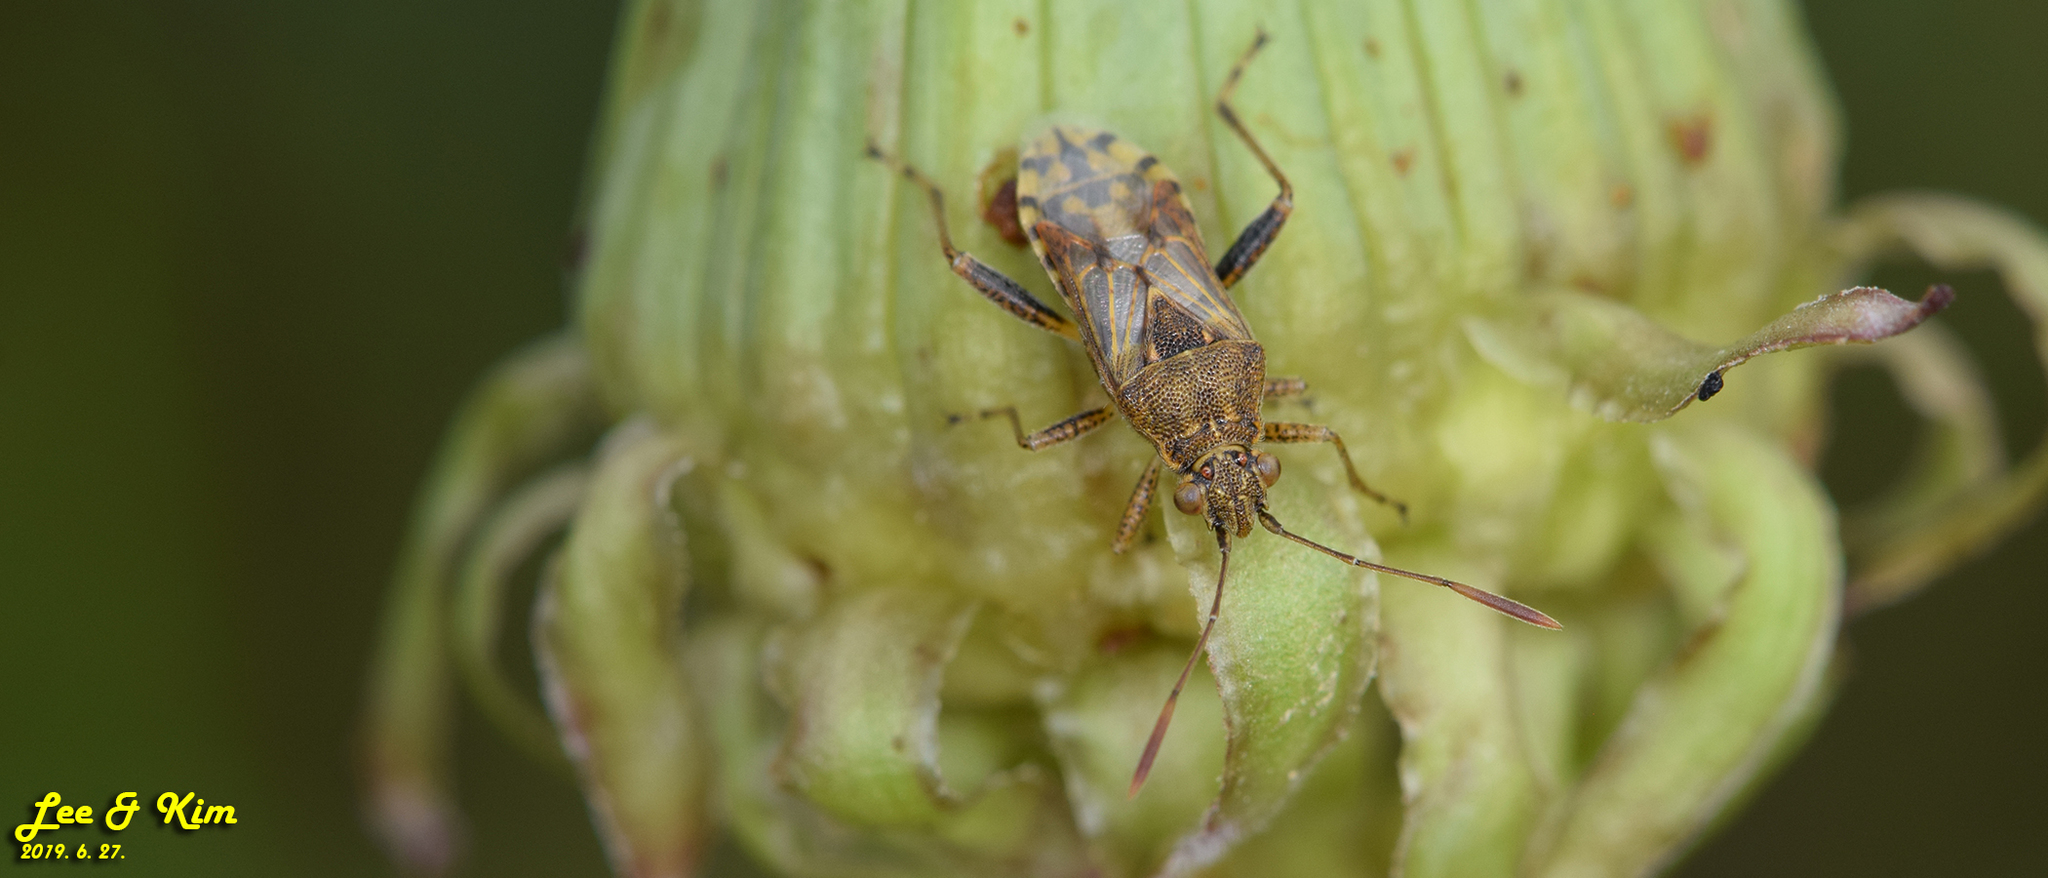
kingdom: Animalia
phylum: Arthropoda
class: Insecta
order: Hemiptera
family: Rhopalidae
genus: Stictopleurus
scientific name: Stictopleurus minutus
